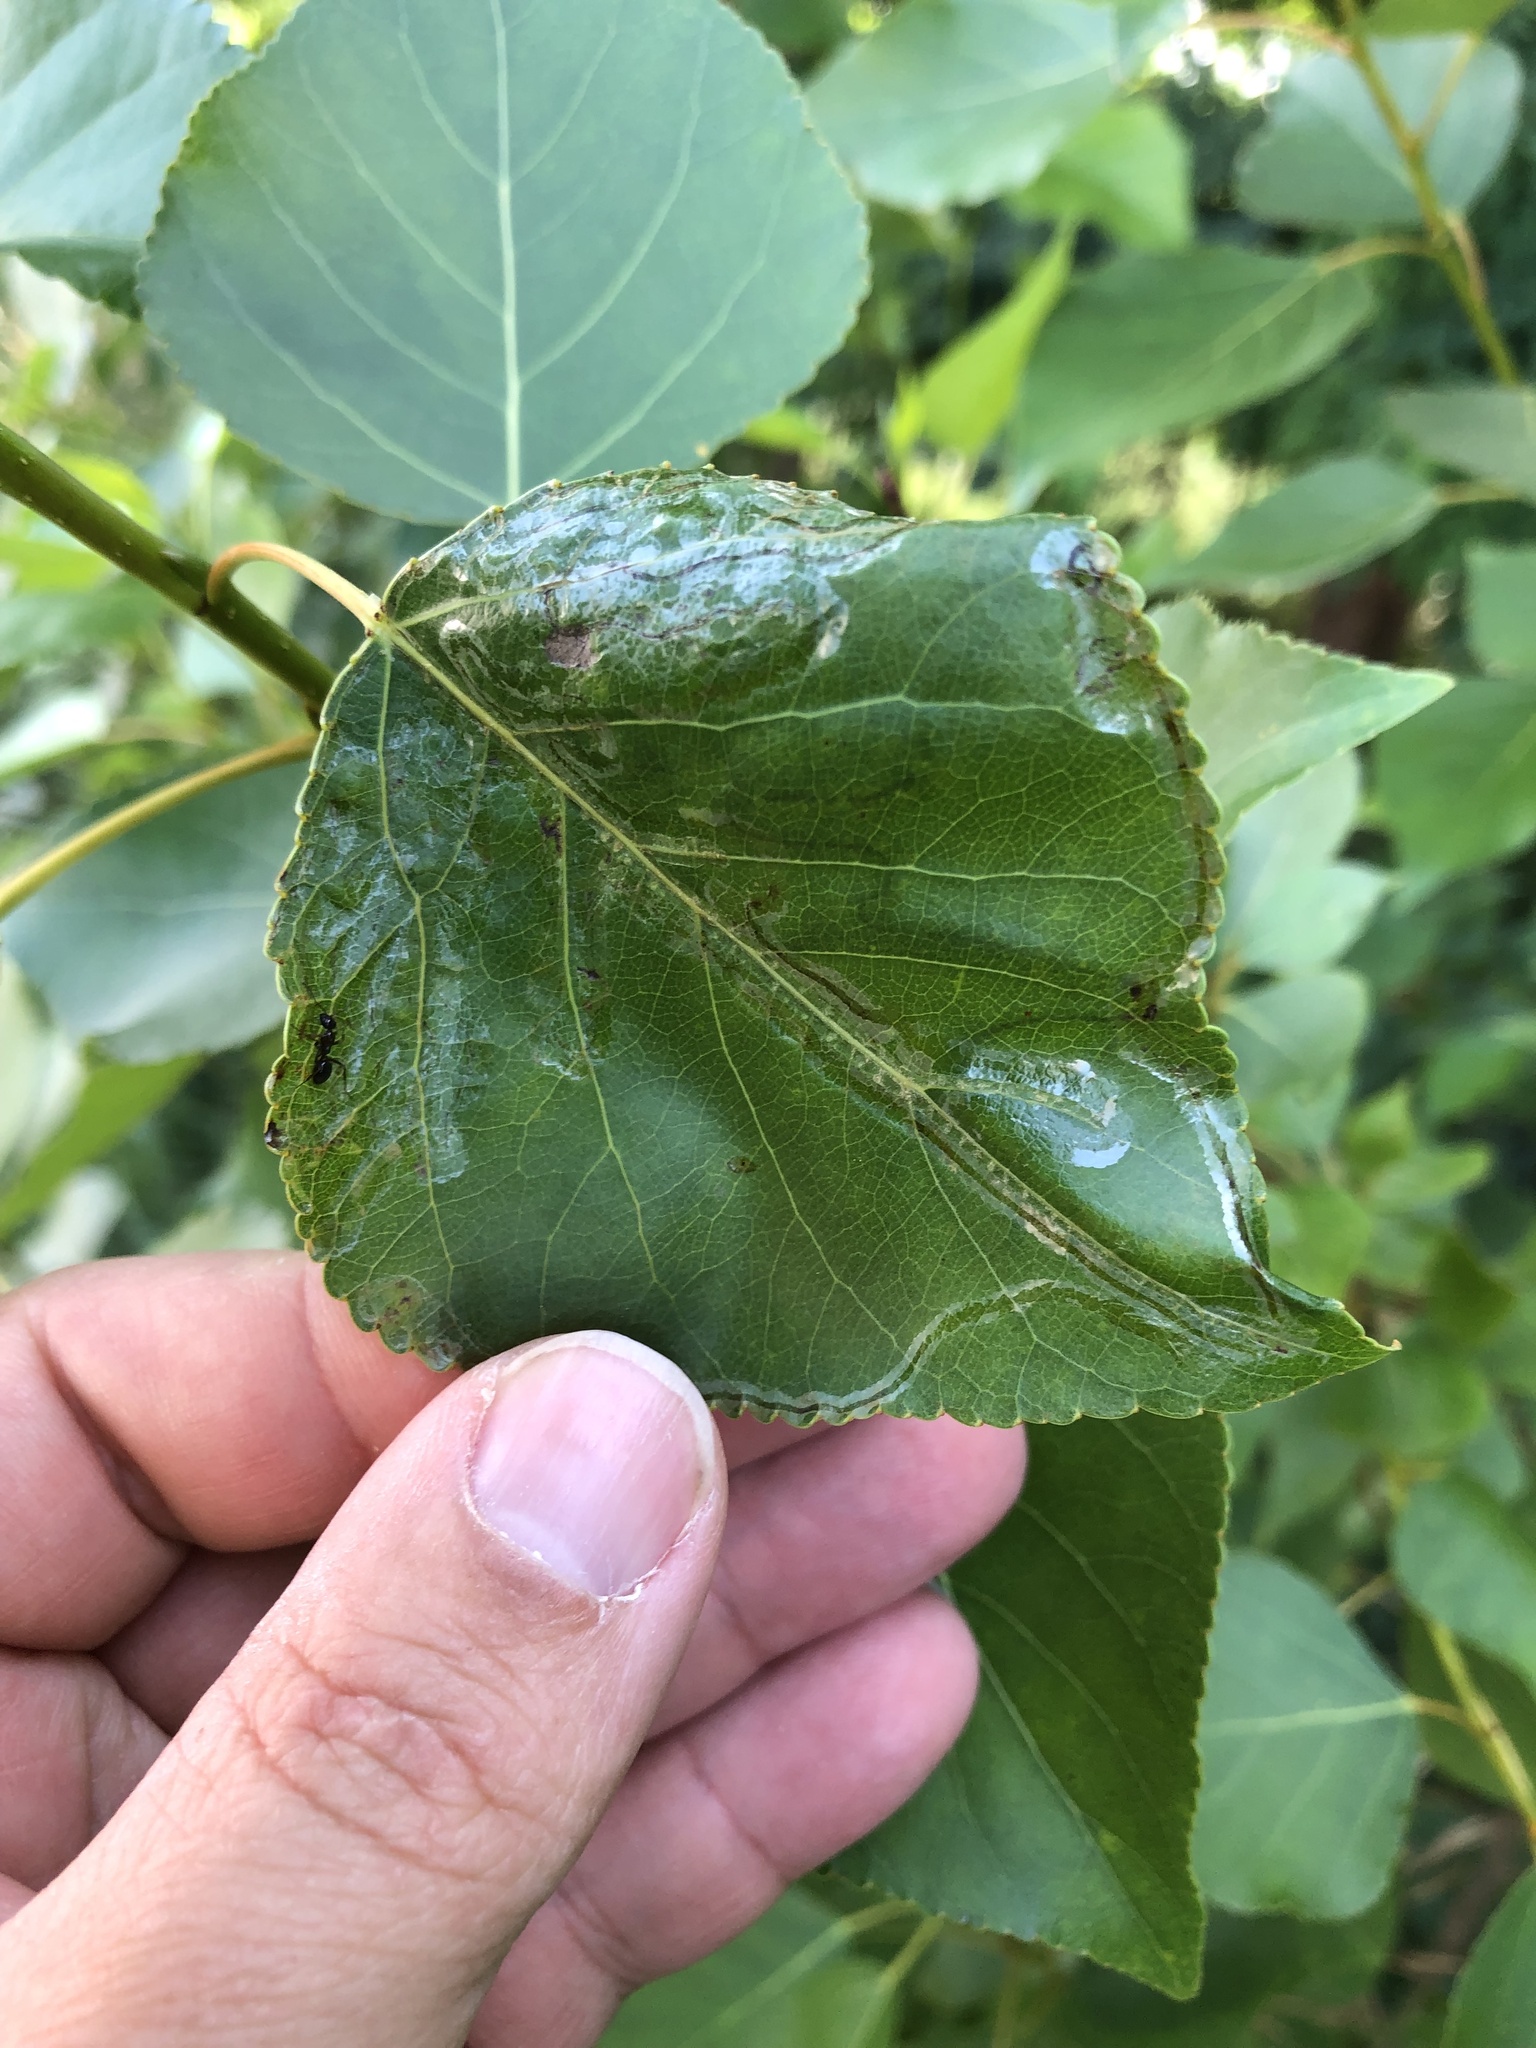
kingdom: Animalia
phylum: Arthropoda
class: Insecta
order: Lepidoptera
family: Gracillariidae
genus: Phyllocnistis
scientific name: Phyllocnistis populiella
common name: Aspen serpentine leafminer moth
